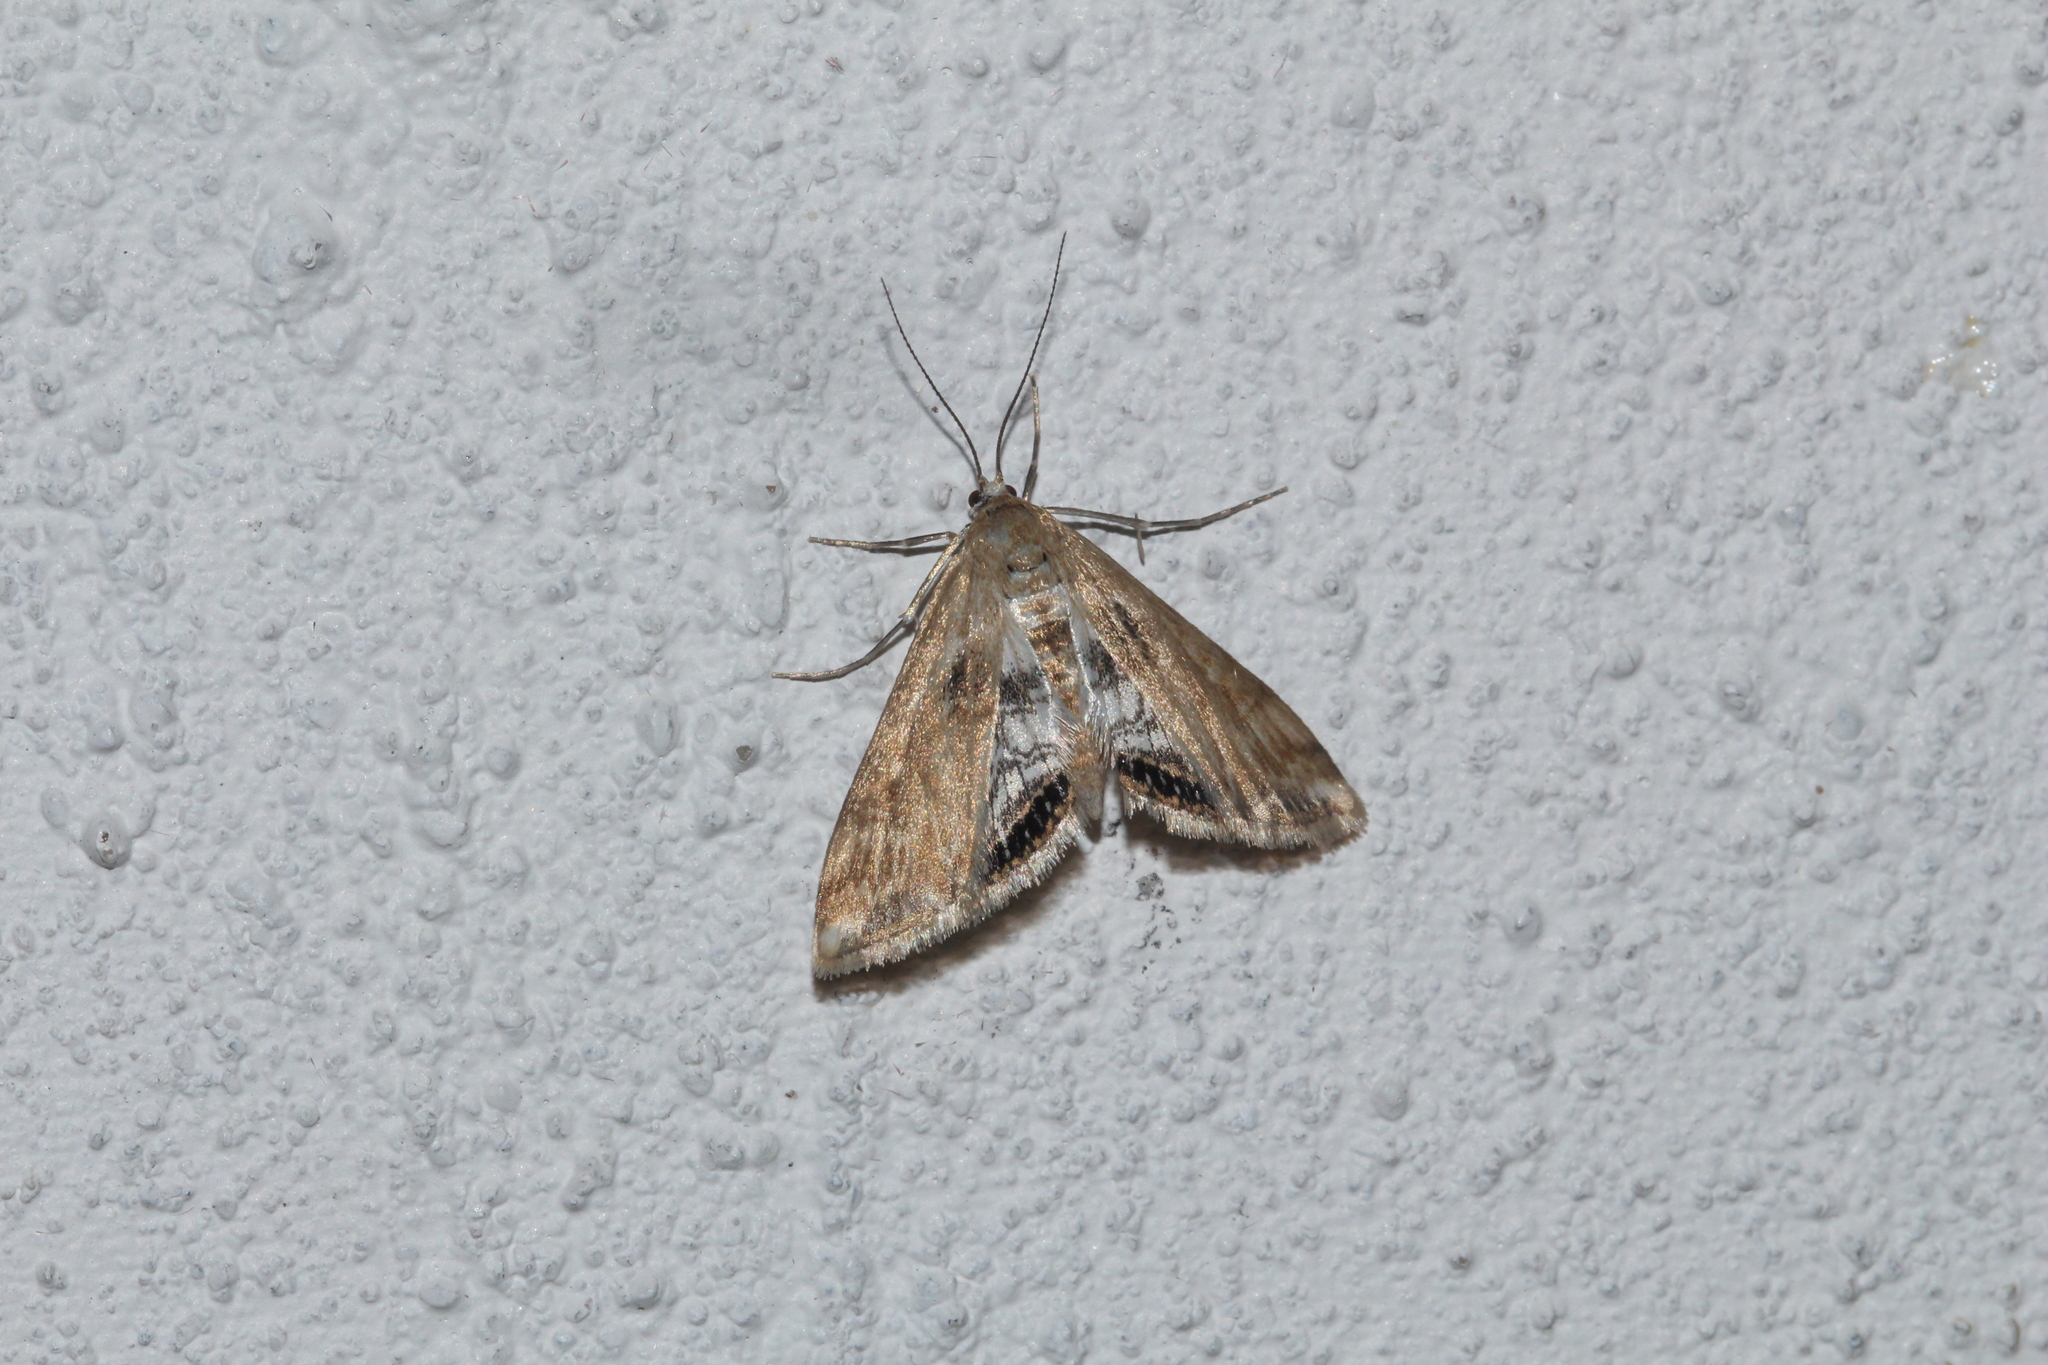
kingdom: Animalia
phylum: Arthropoda
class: Insecta
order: Lepidoptera
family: Crambidae
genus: Cataclysta
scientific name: Cataclysta lemnata
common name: Small china-mark
